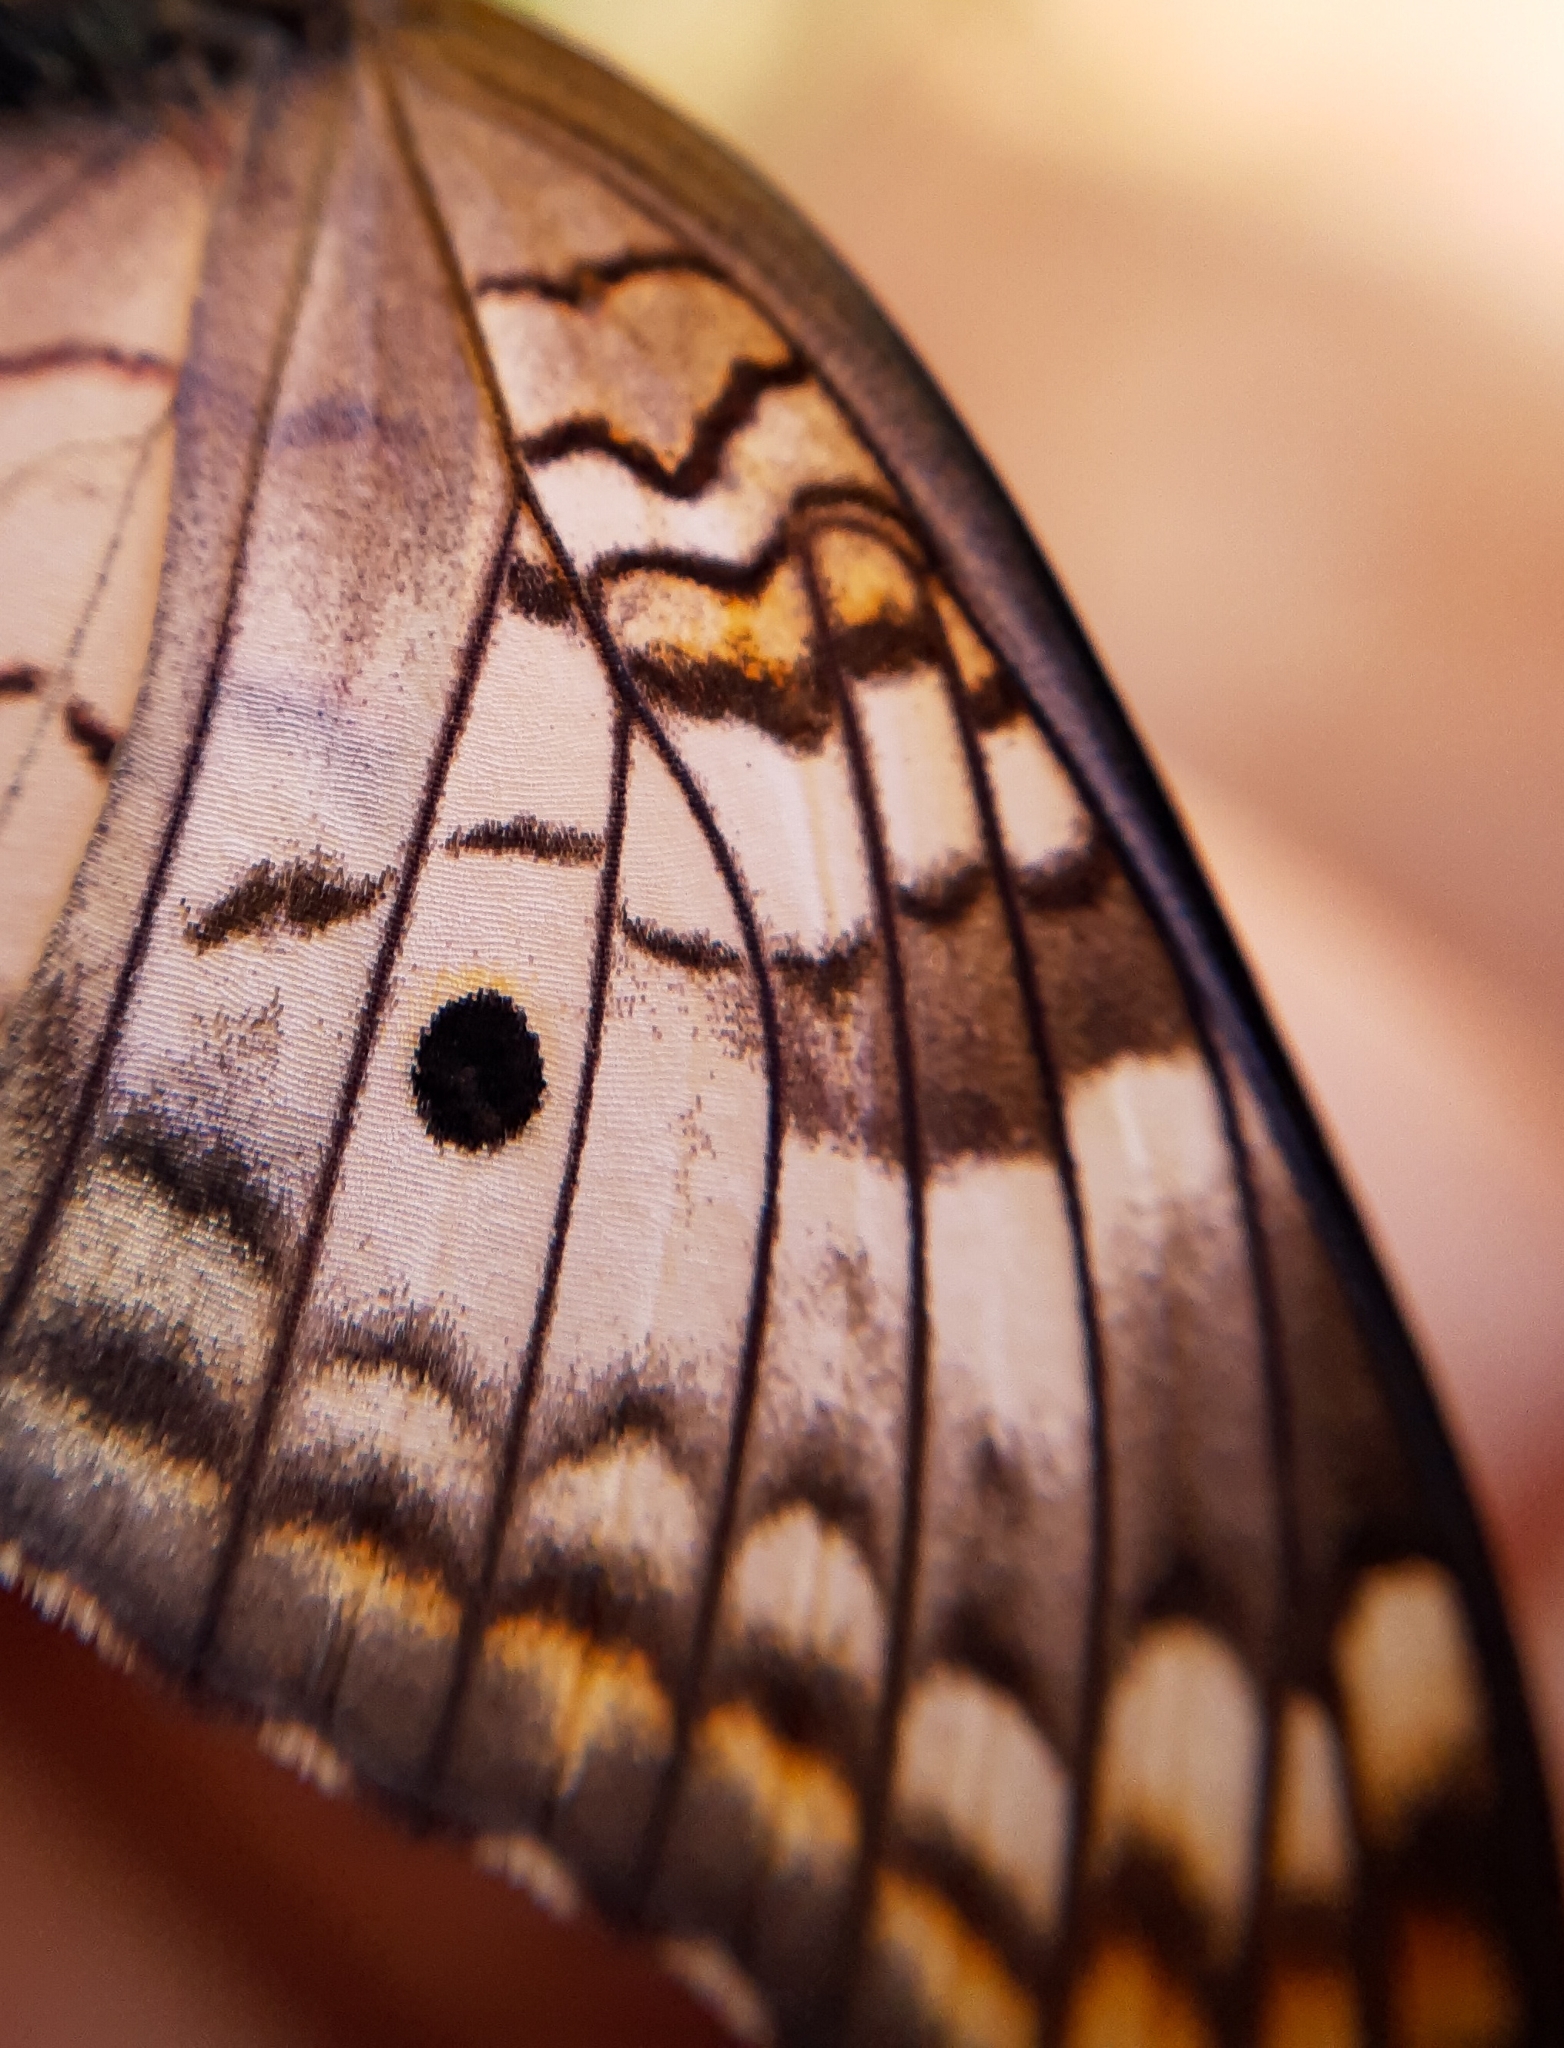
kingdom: Animalia
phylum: Arthropoda
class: Insecta
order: Lepidoptera
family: Nymphalidae
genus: Anartia
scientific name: Anartia jatrophae
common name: White peacock
